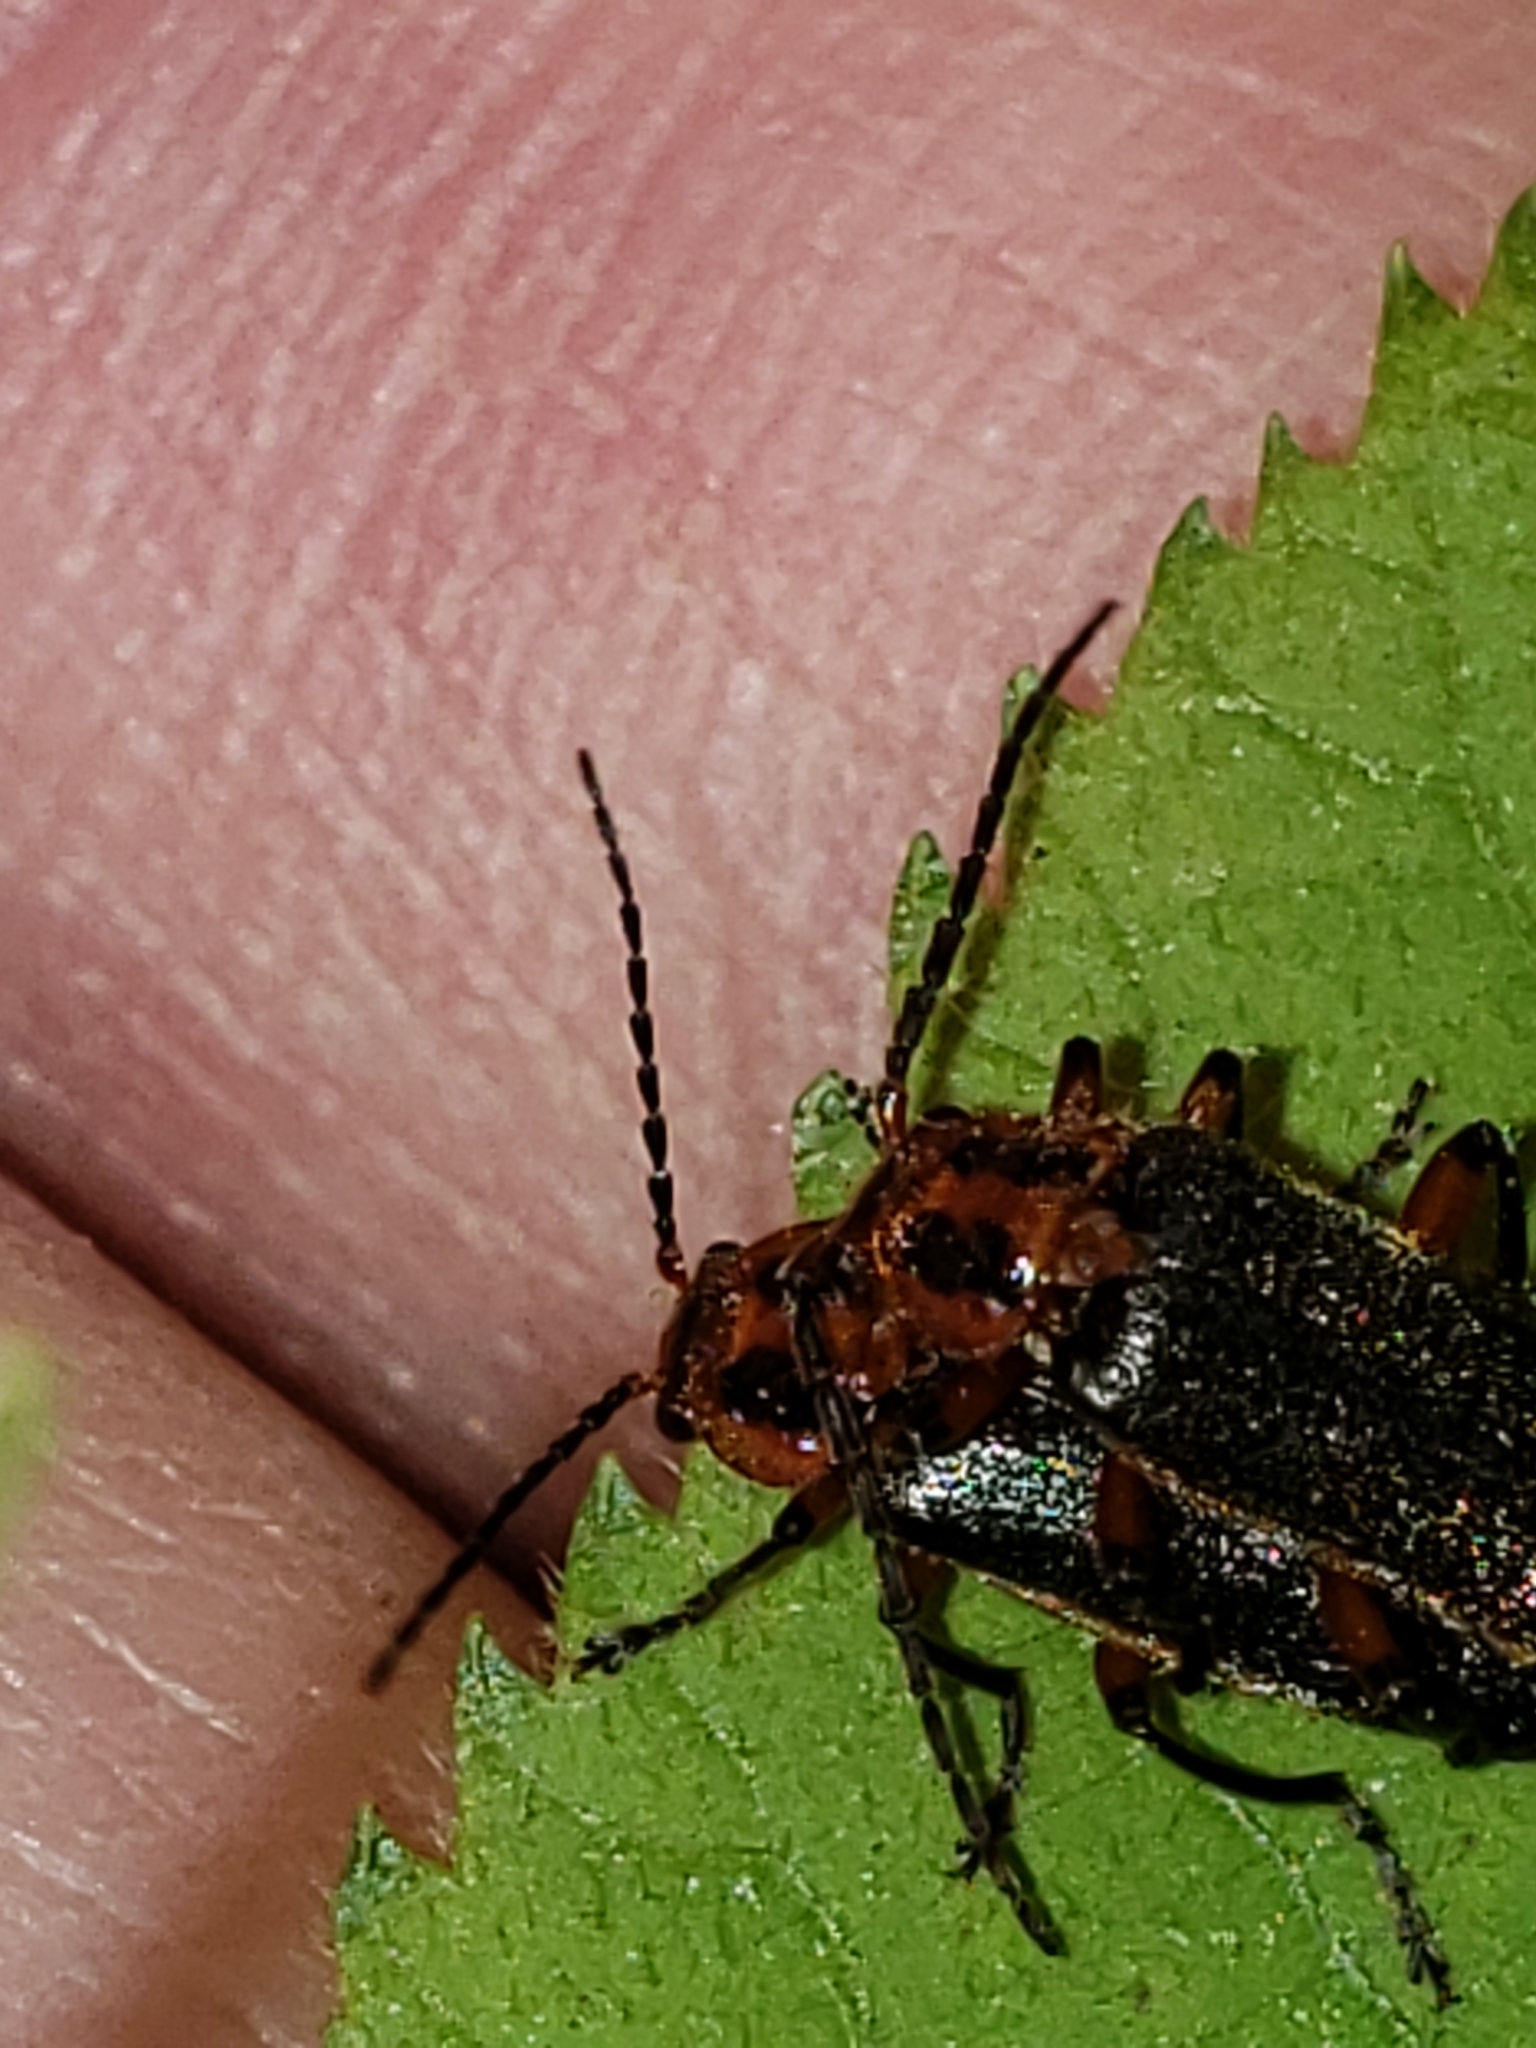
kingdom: Animalia
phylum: Arthropoda
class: Insecta
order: Coleoptera
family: Cantharidae
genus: Atalantycha
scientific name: Atalantycha bilineata
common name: Two-lined leatherwing
